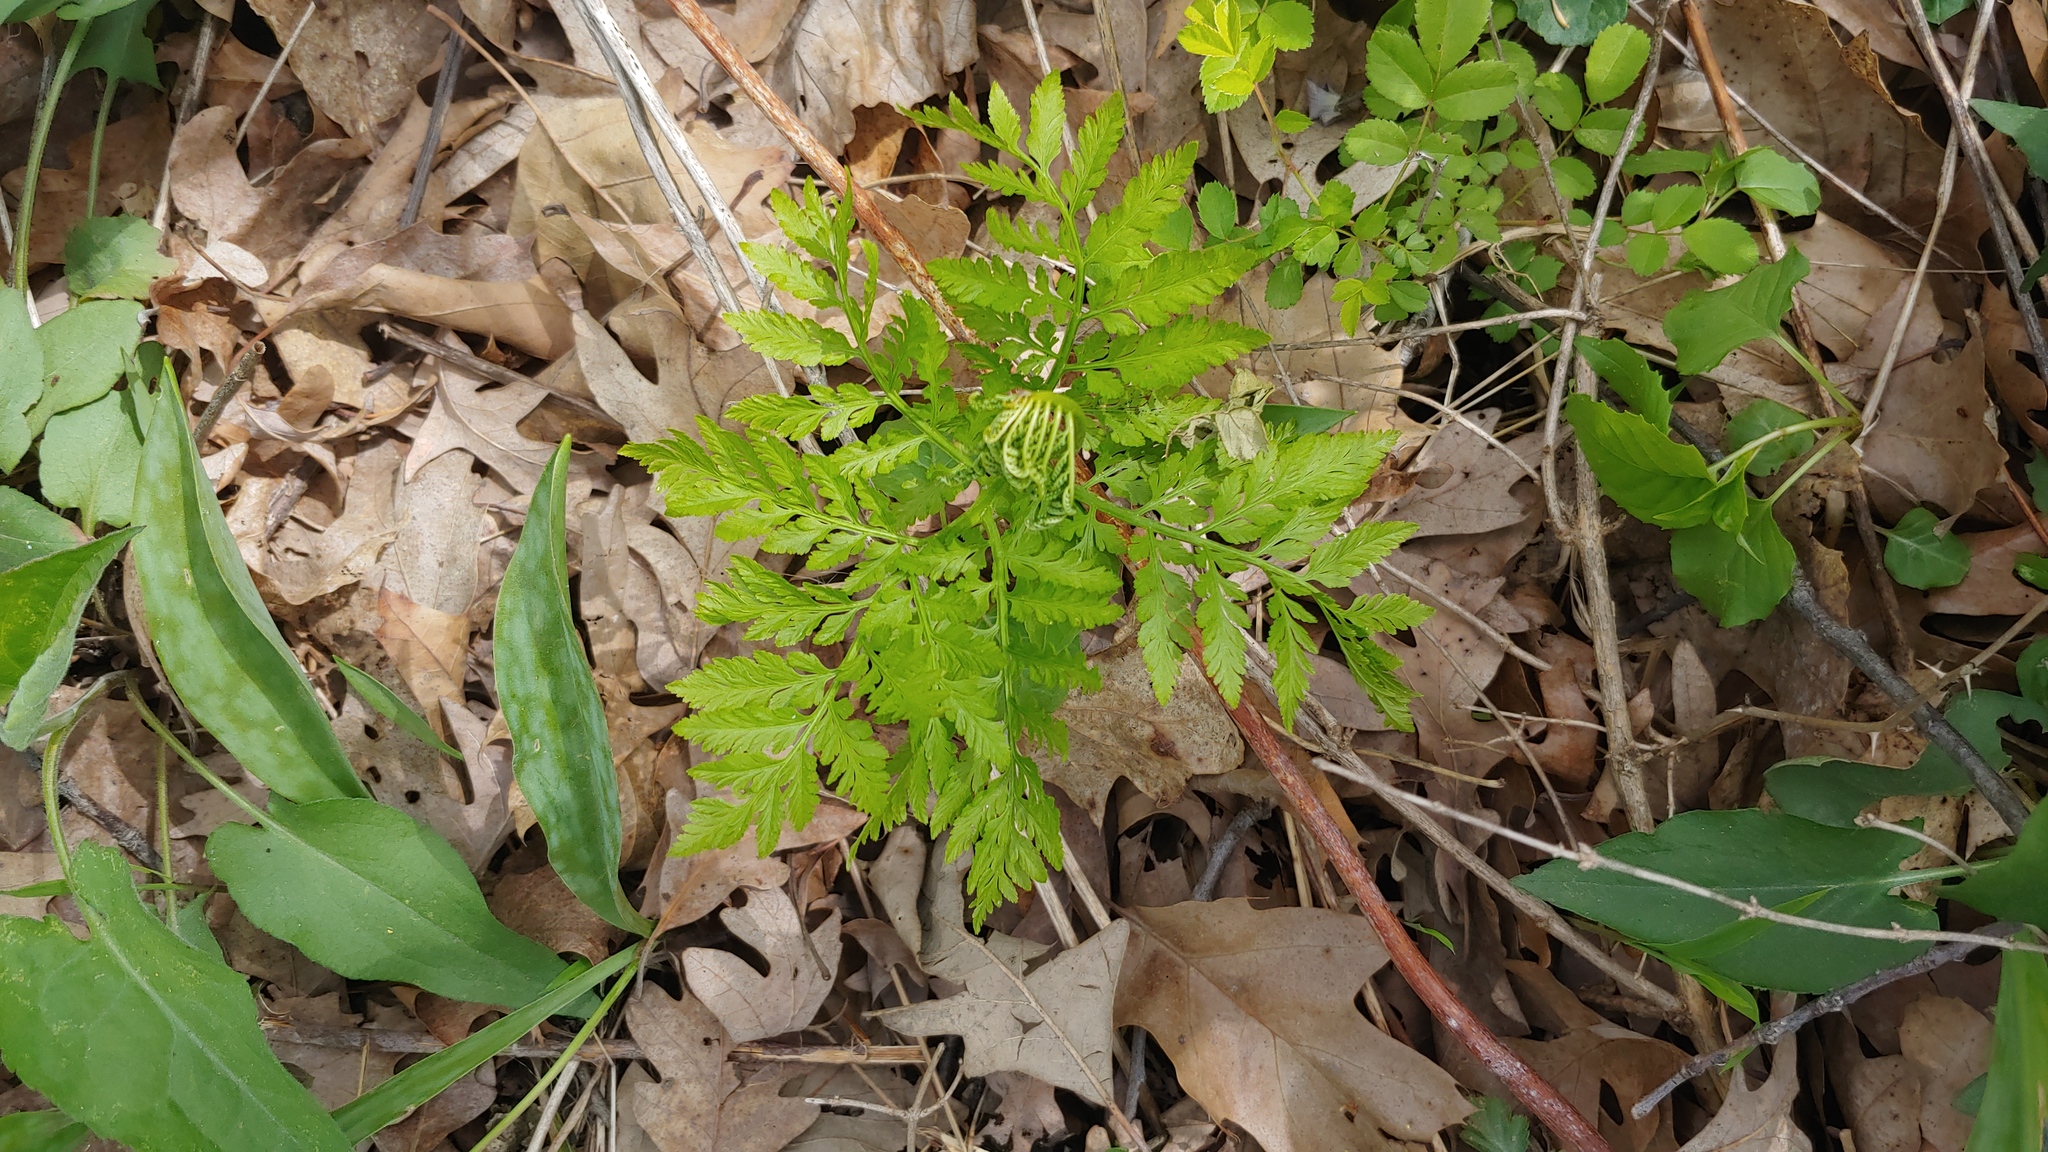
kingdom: Plantae
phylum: Tracheophyta
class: Polypodiopsida
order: Ophioglossales
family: Ophioglossaceae
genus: Botrypus
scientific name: Botrypus virginianus
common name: Common grapefern
